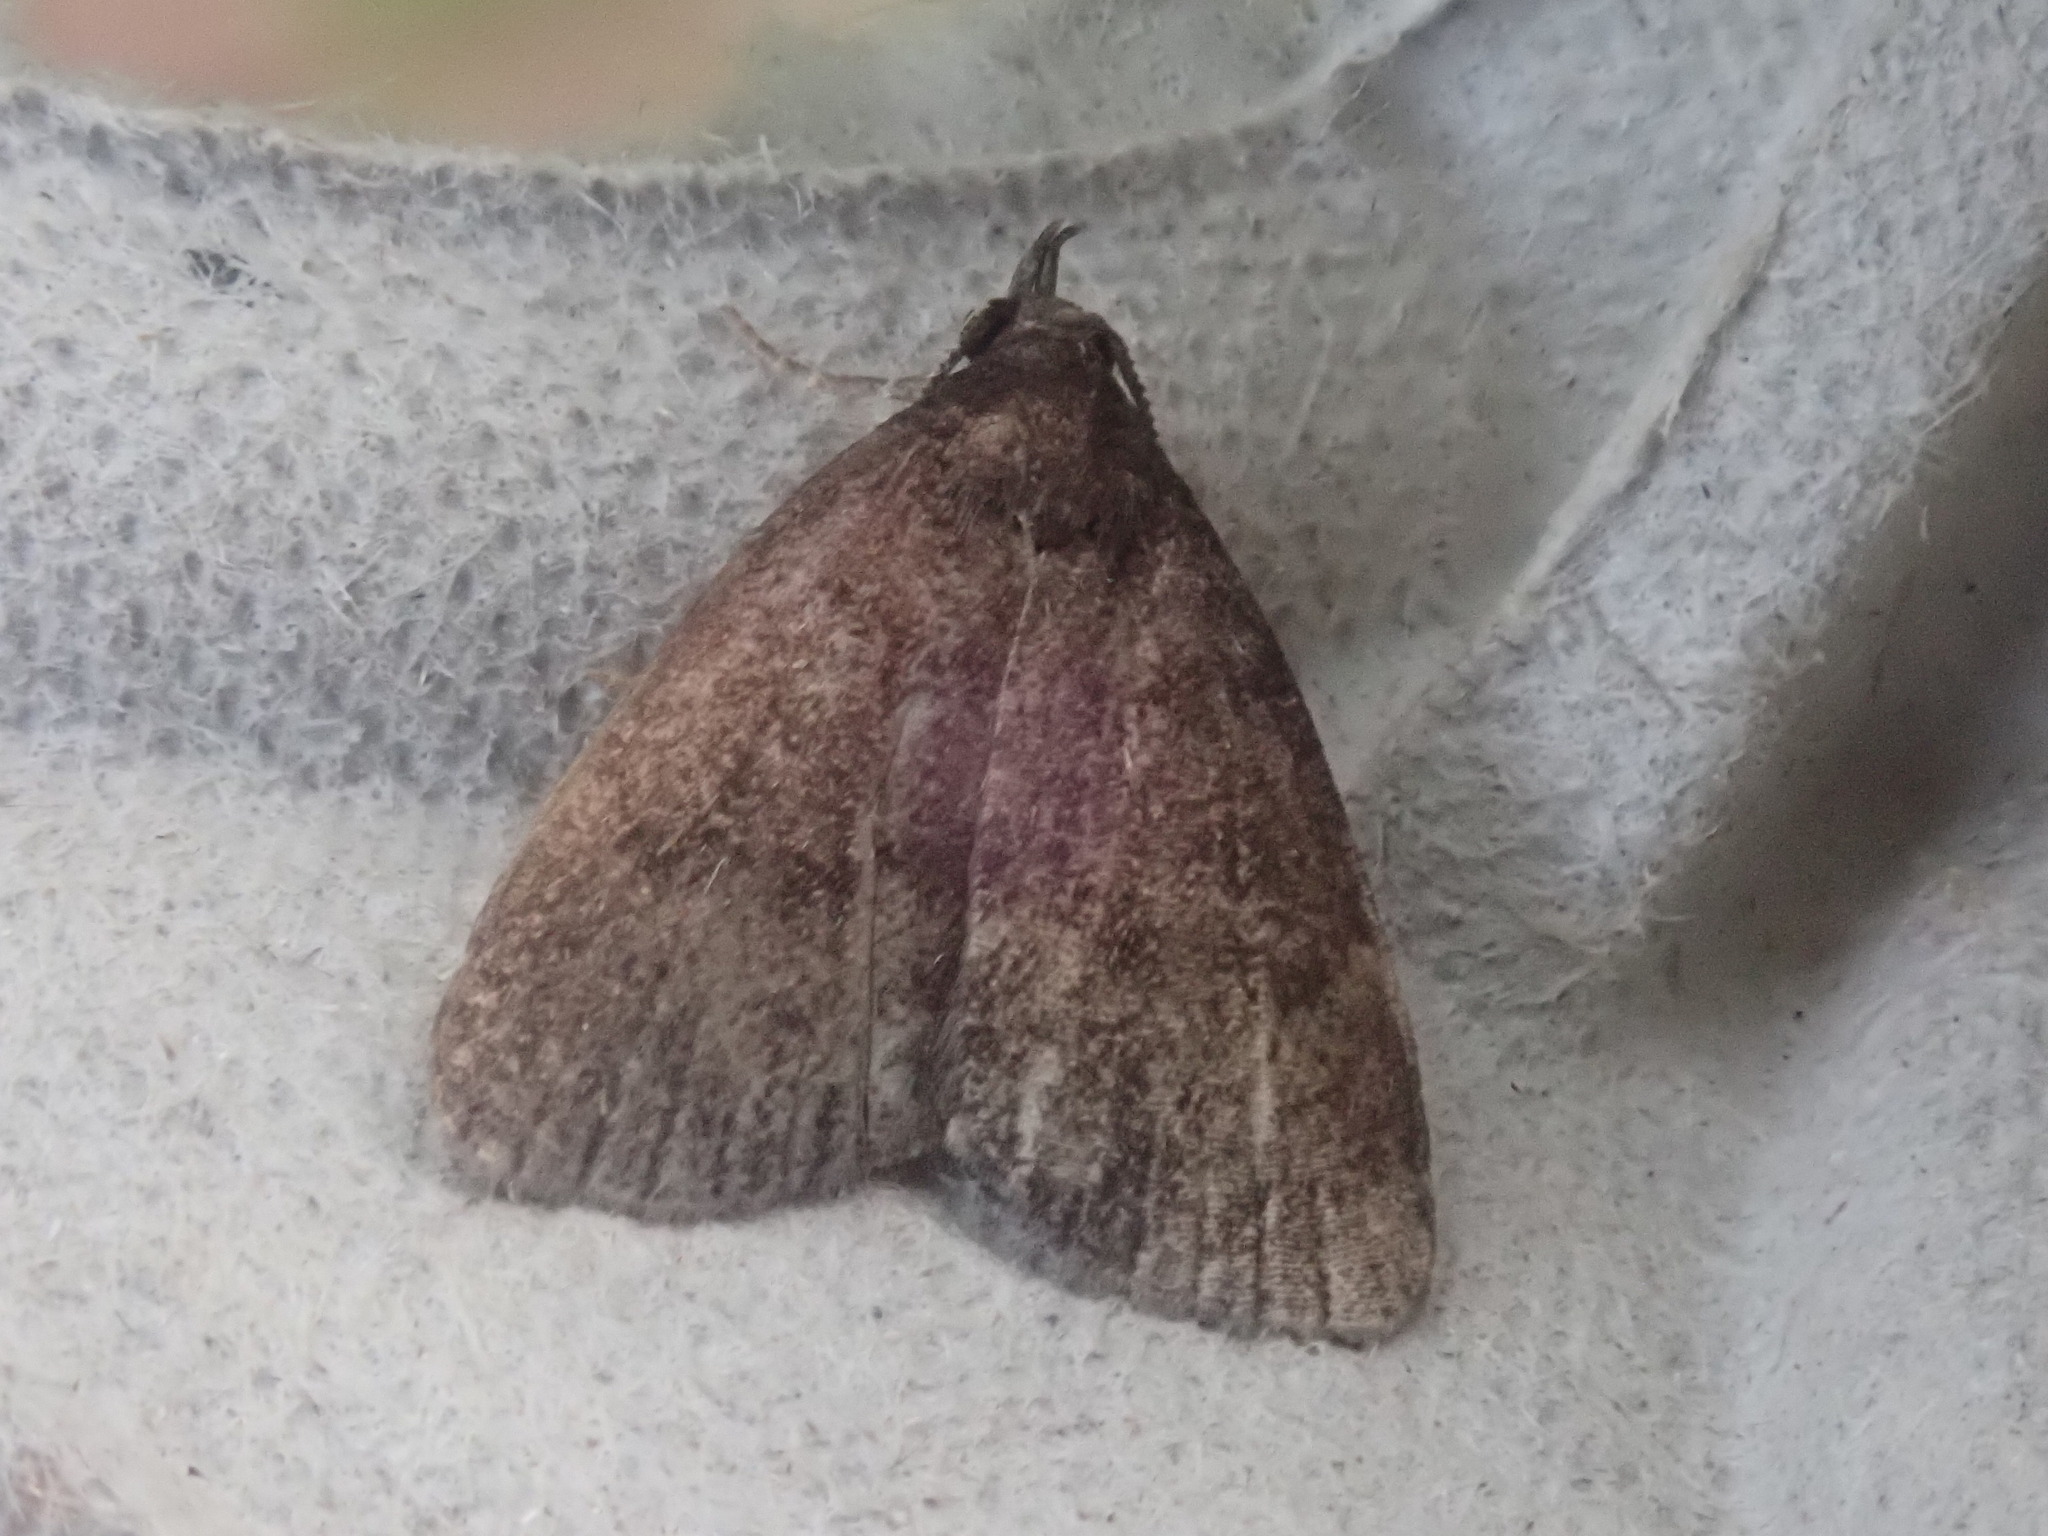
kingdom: Animalia
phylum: Arthropoda
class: Insecta
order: Lepidoptera
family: Erebidae
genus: Idia
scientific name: Idia rotundalis
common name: Rotund idia moth
